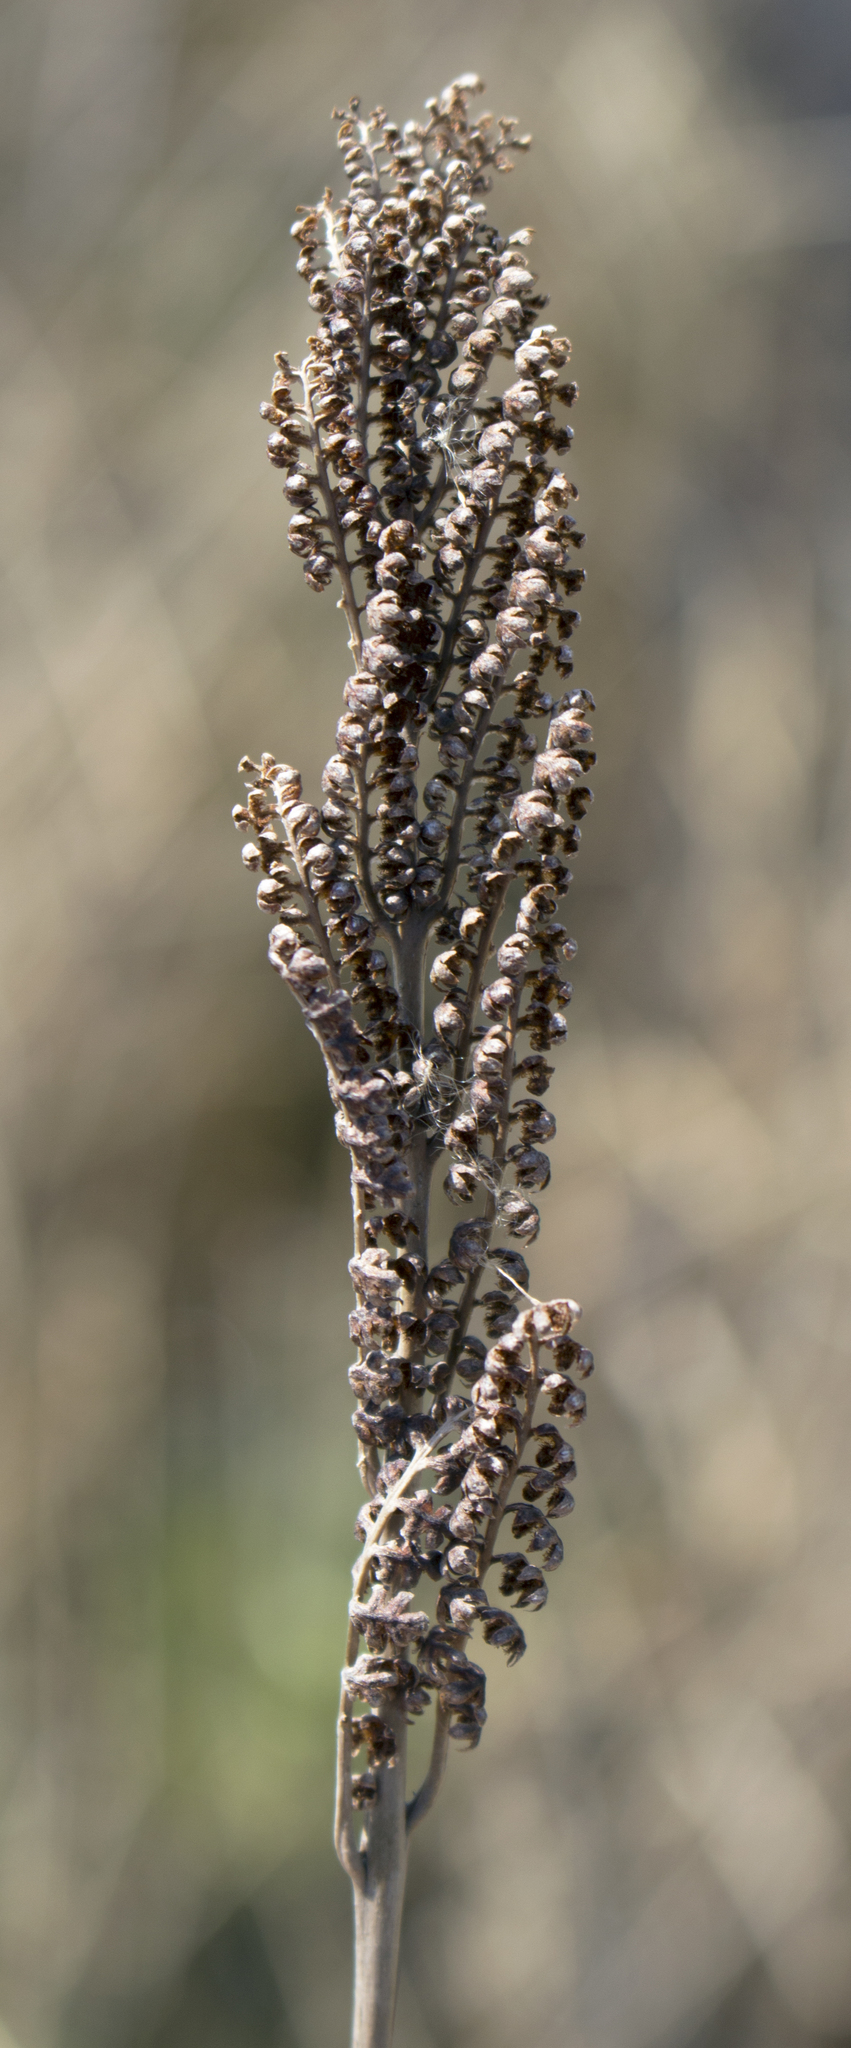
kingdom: Plantae
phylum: Tracheophyta
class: Polypodiopsida
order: Polypodiales
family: Onocleaceae
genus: Onoclea
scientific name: Onoclea sensibilis
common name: Sensitive fern
